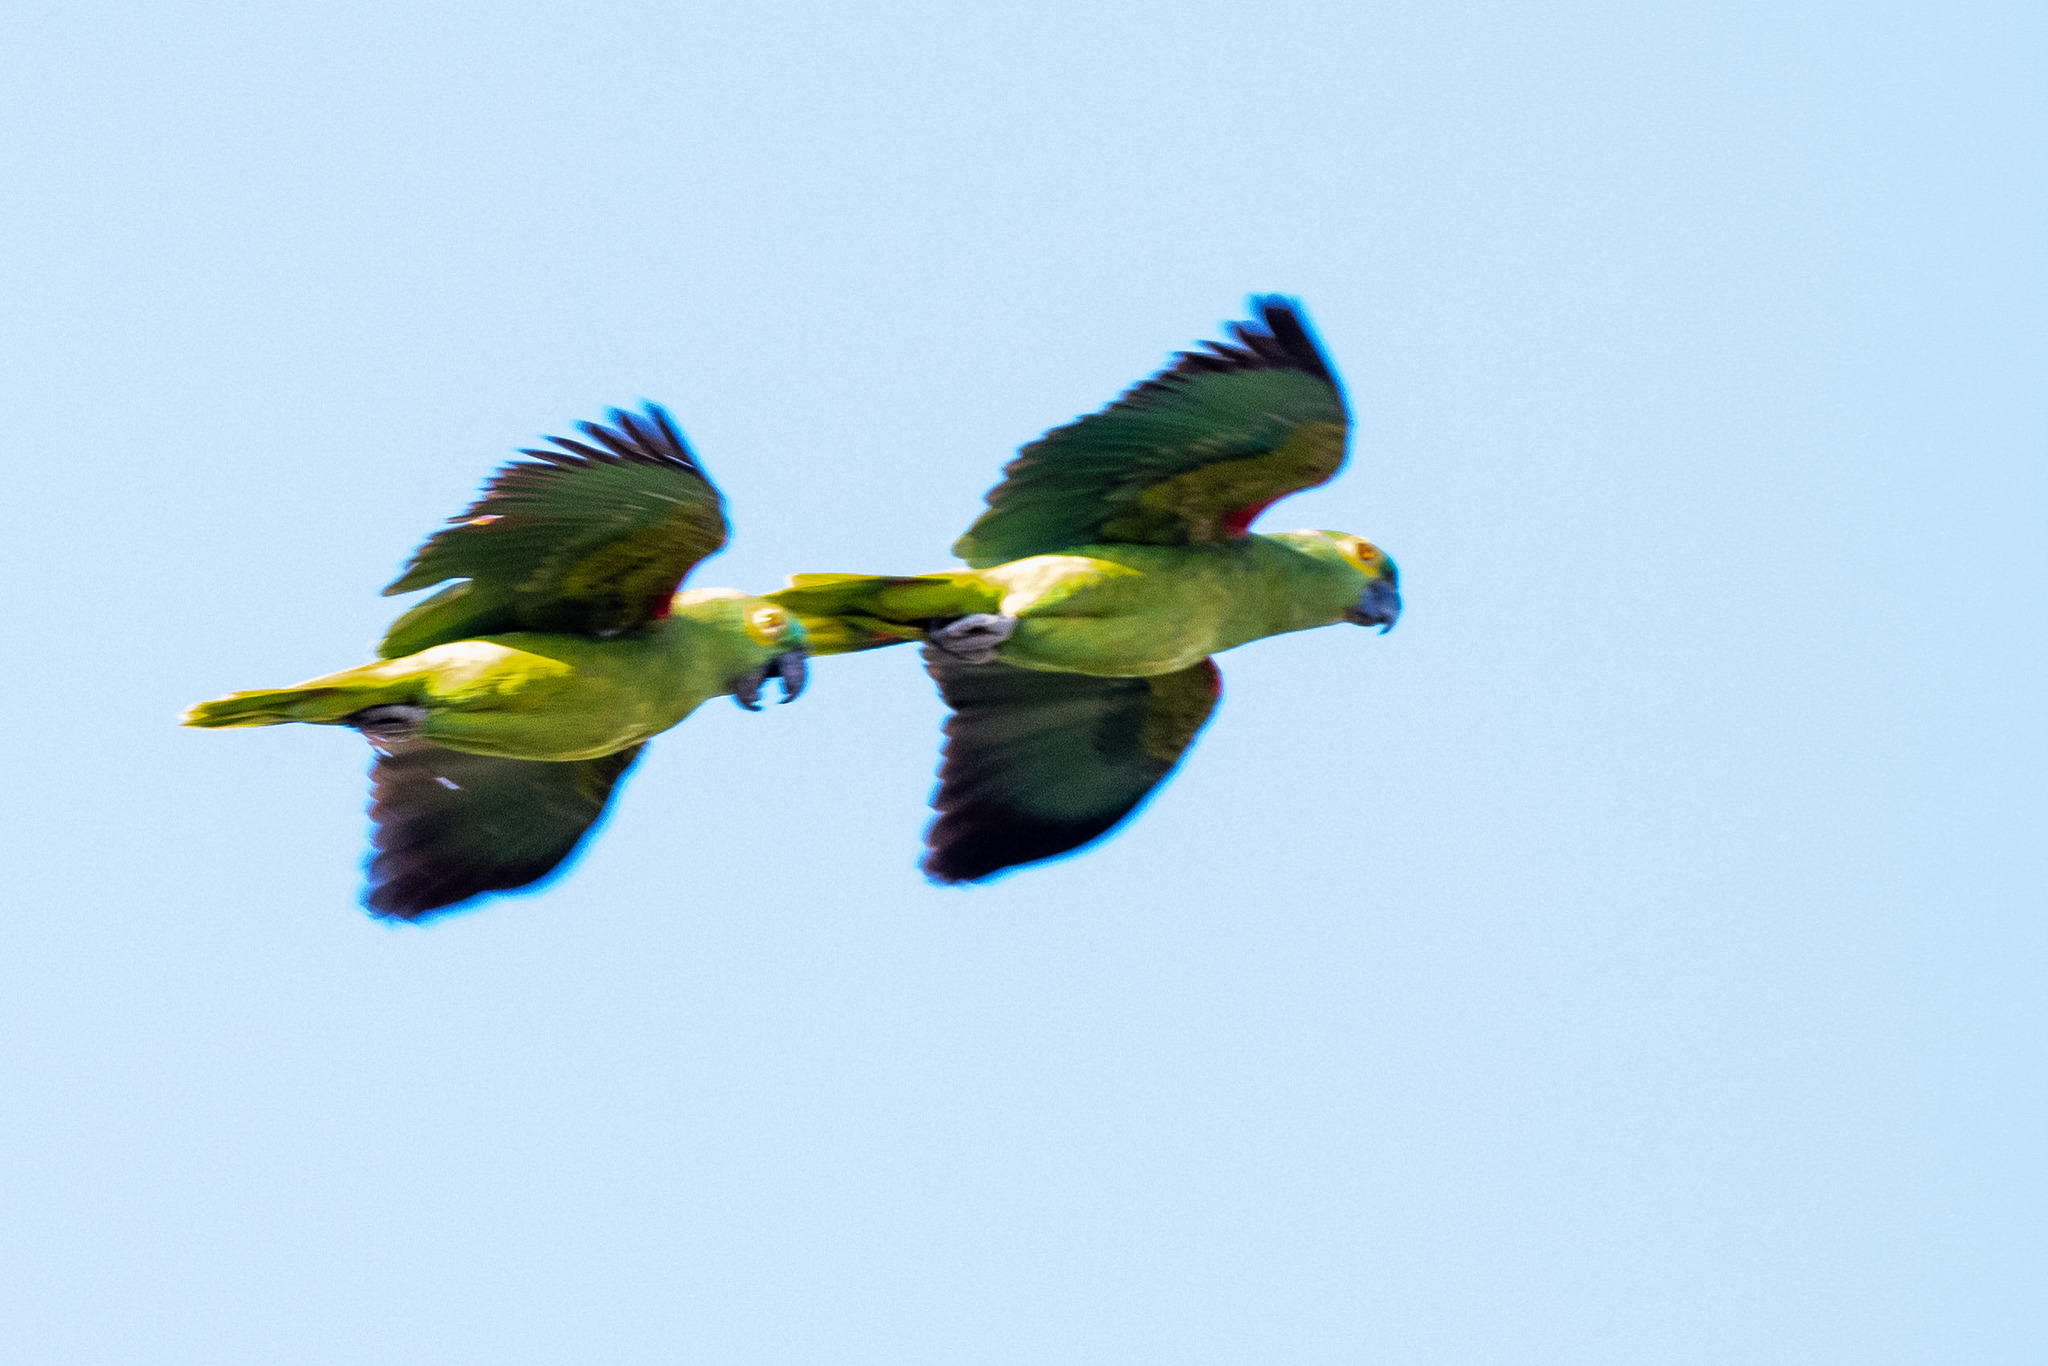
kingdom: Animalia
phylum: Chordata
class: Aves
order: Psittaciformes
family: Psittacidae
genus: Amazona
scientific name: Amazona aestiva
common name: Turquoise-fronted amazon
